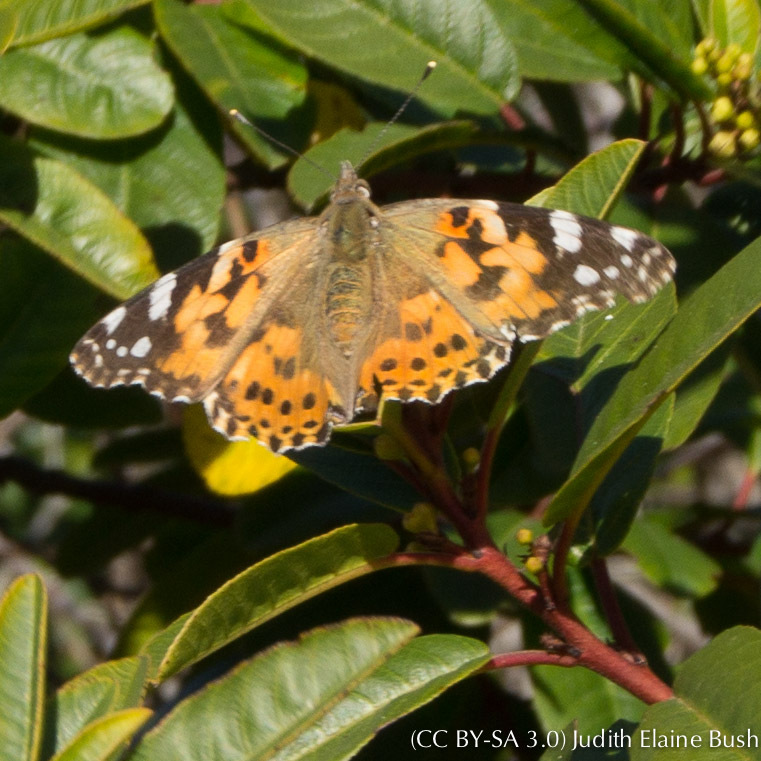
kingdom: Animalia
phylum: Arthropoda
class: Insecta
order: Lepidoptera
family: Nymphalidae
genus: Vanessa
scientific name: Vanessa cardui
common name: Painted lady
